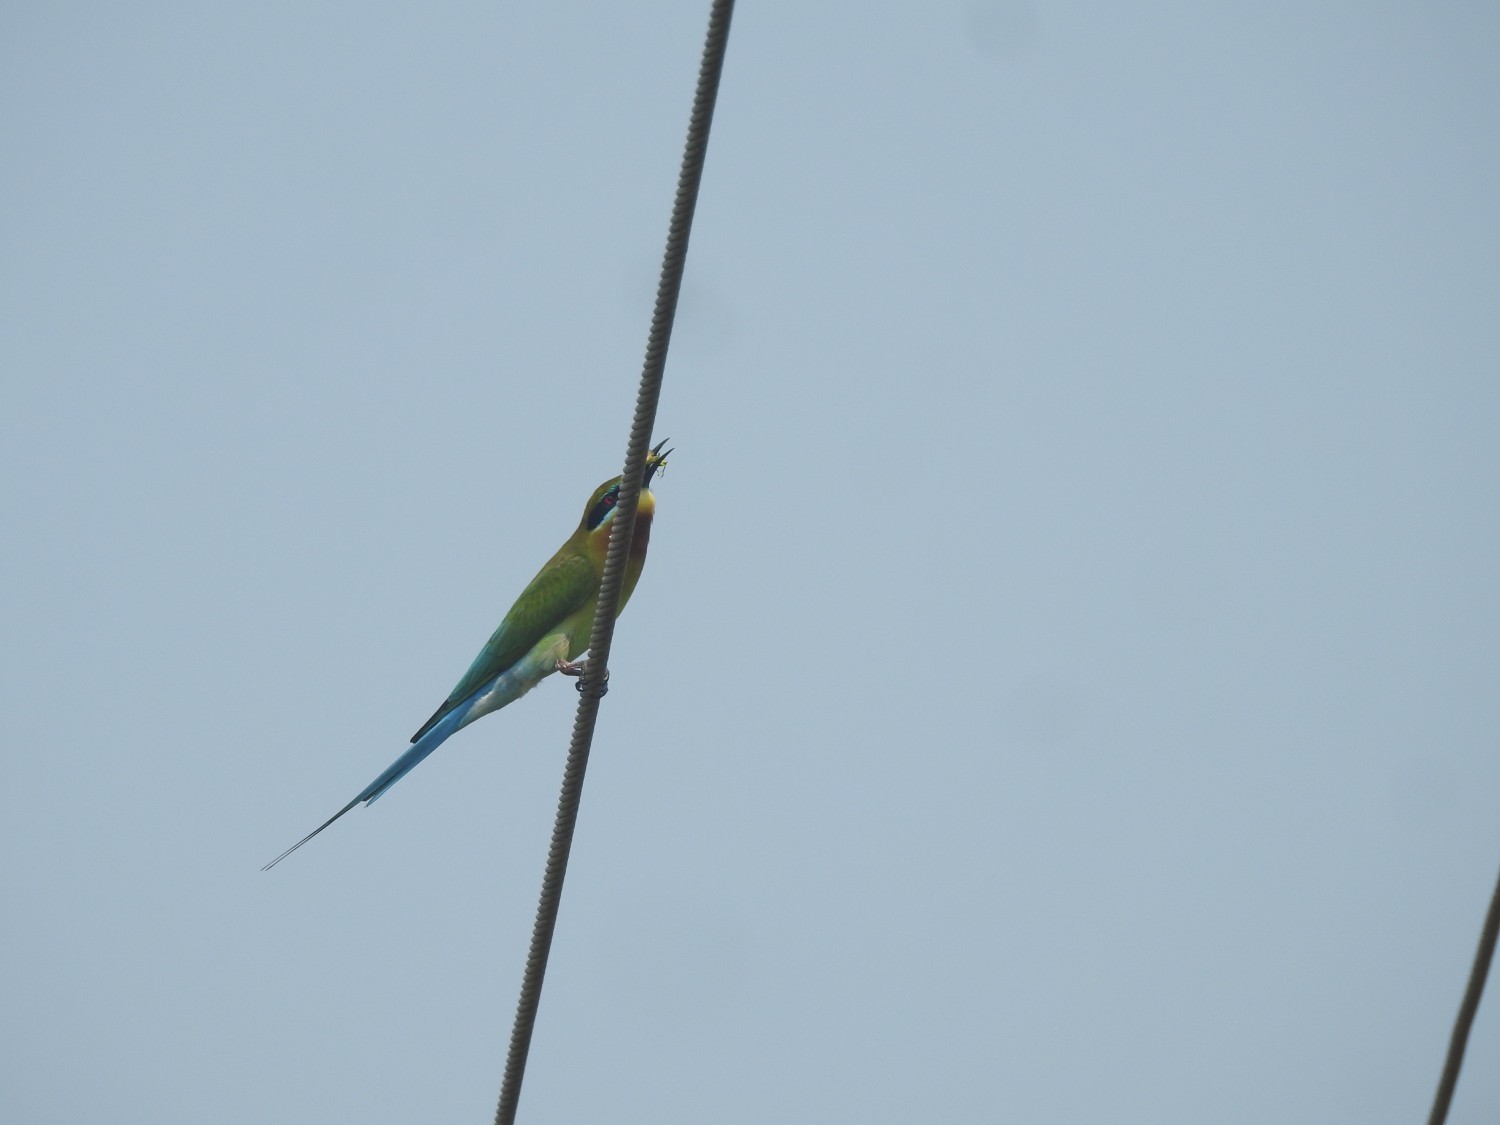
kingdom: Animalia
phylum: Chordata
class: Aves
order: Coraciiformes
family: Meropidae
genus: Merops
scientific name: Merops philippinus
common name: Blue-tailed bee-eater
